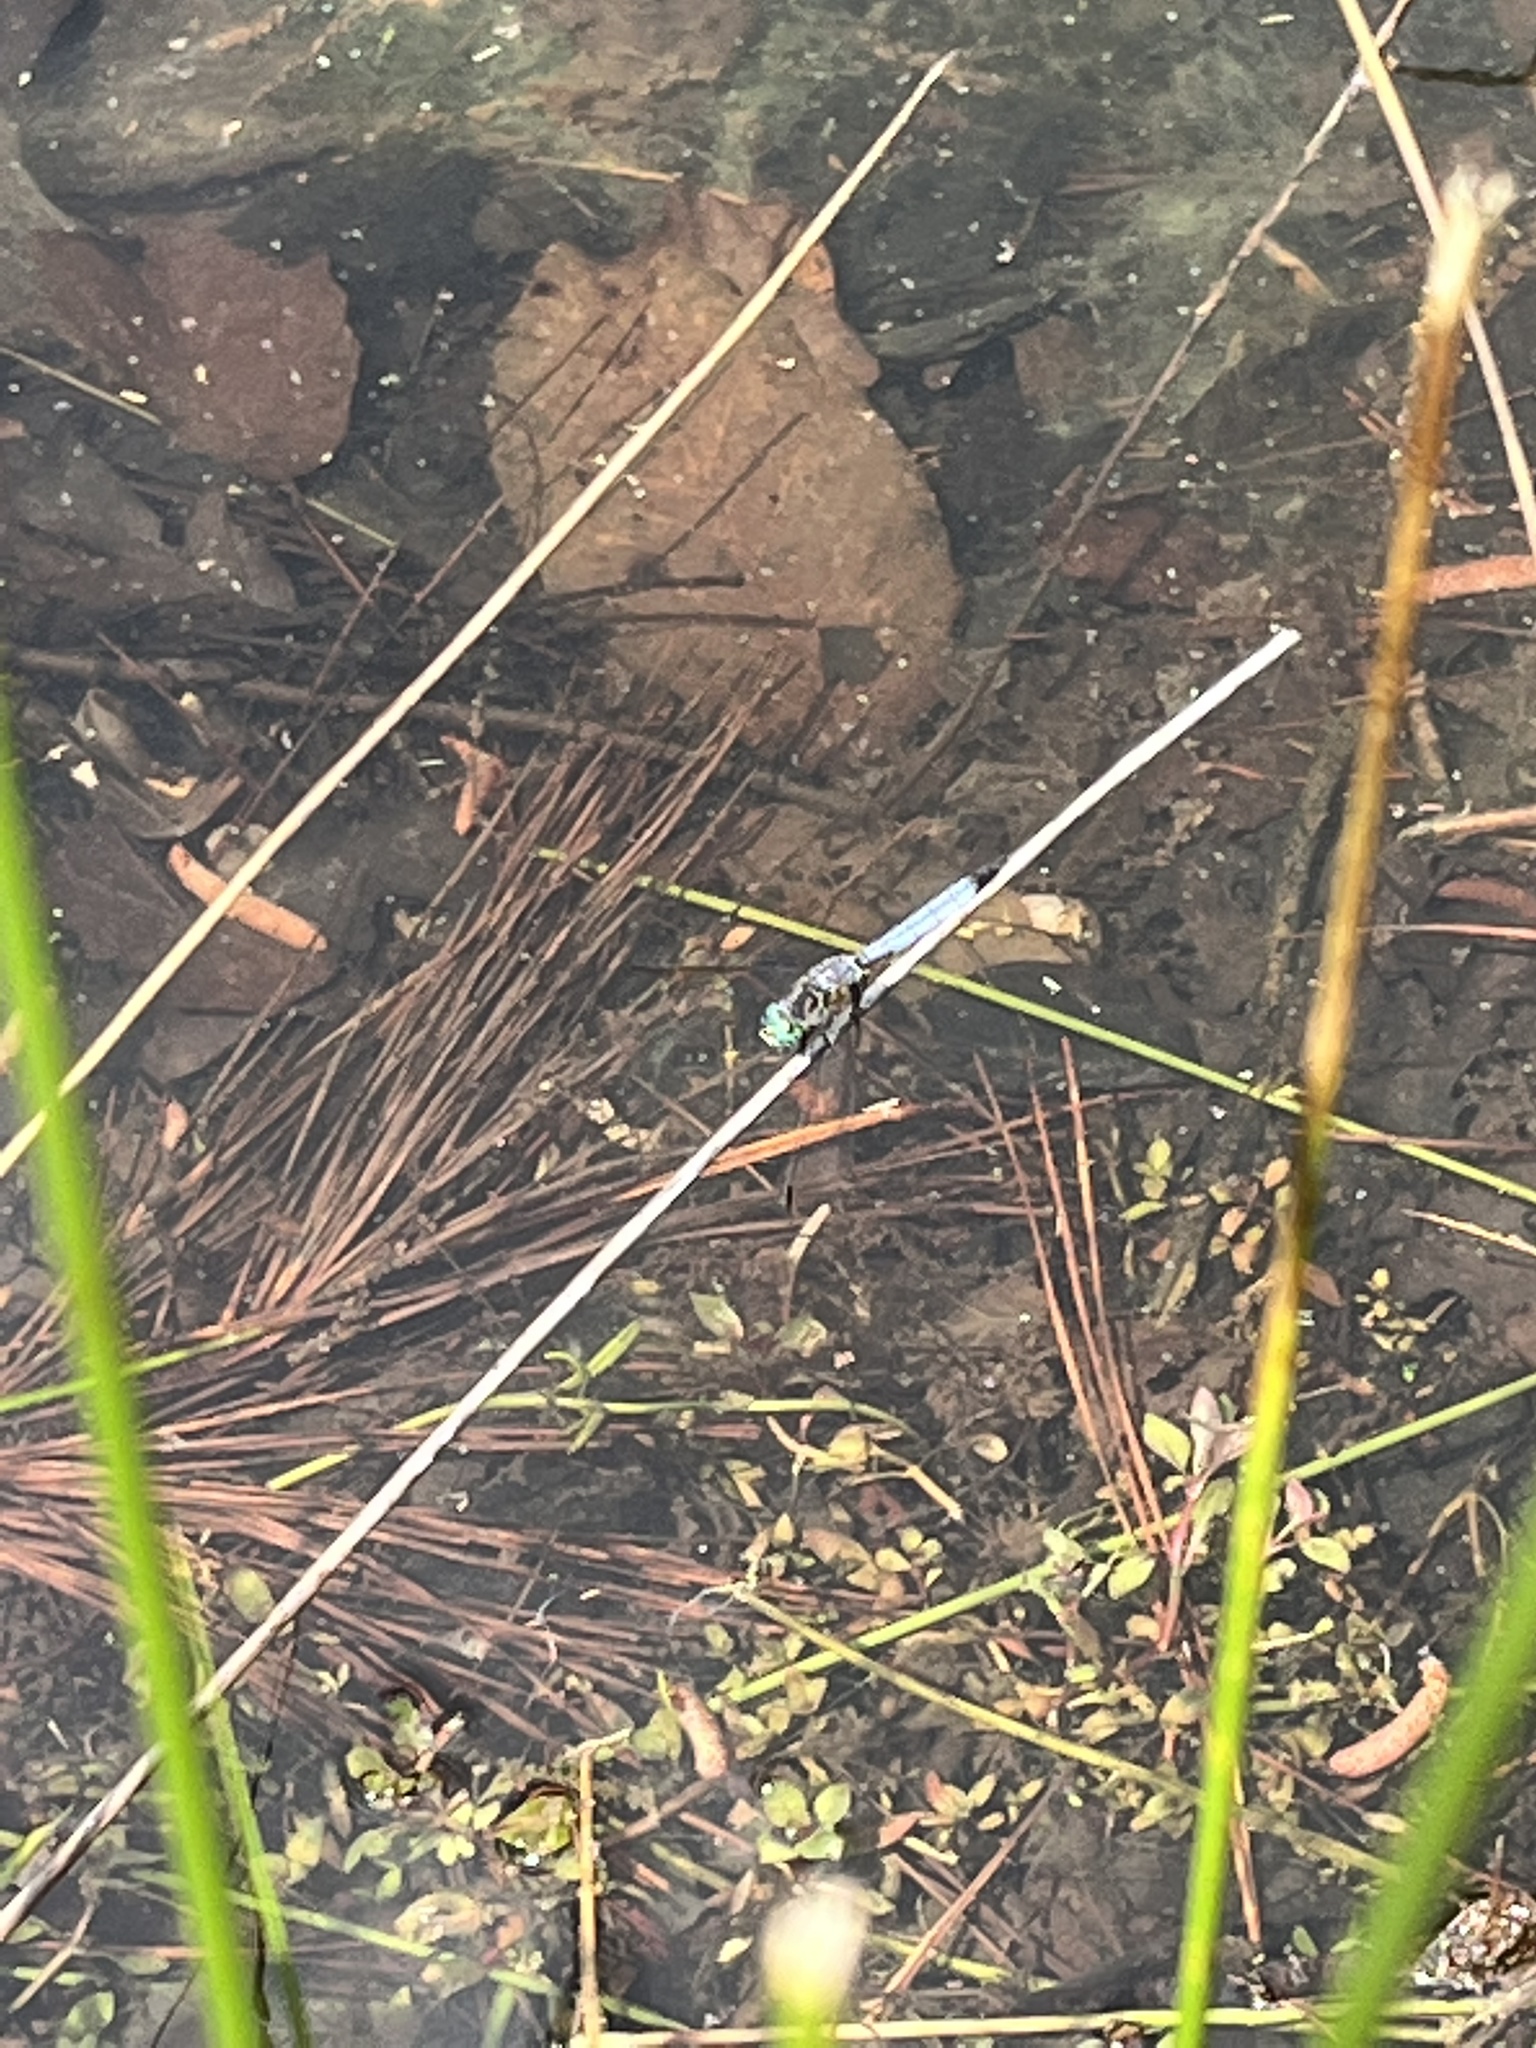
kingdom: Animalia
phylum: Arthropoda
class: Insecta
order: Odonata
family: Libellulidae
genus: Pachydiplax
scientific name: Pachydiplax longipennis
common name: Blue dasher
